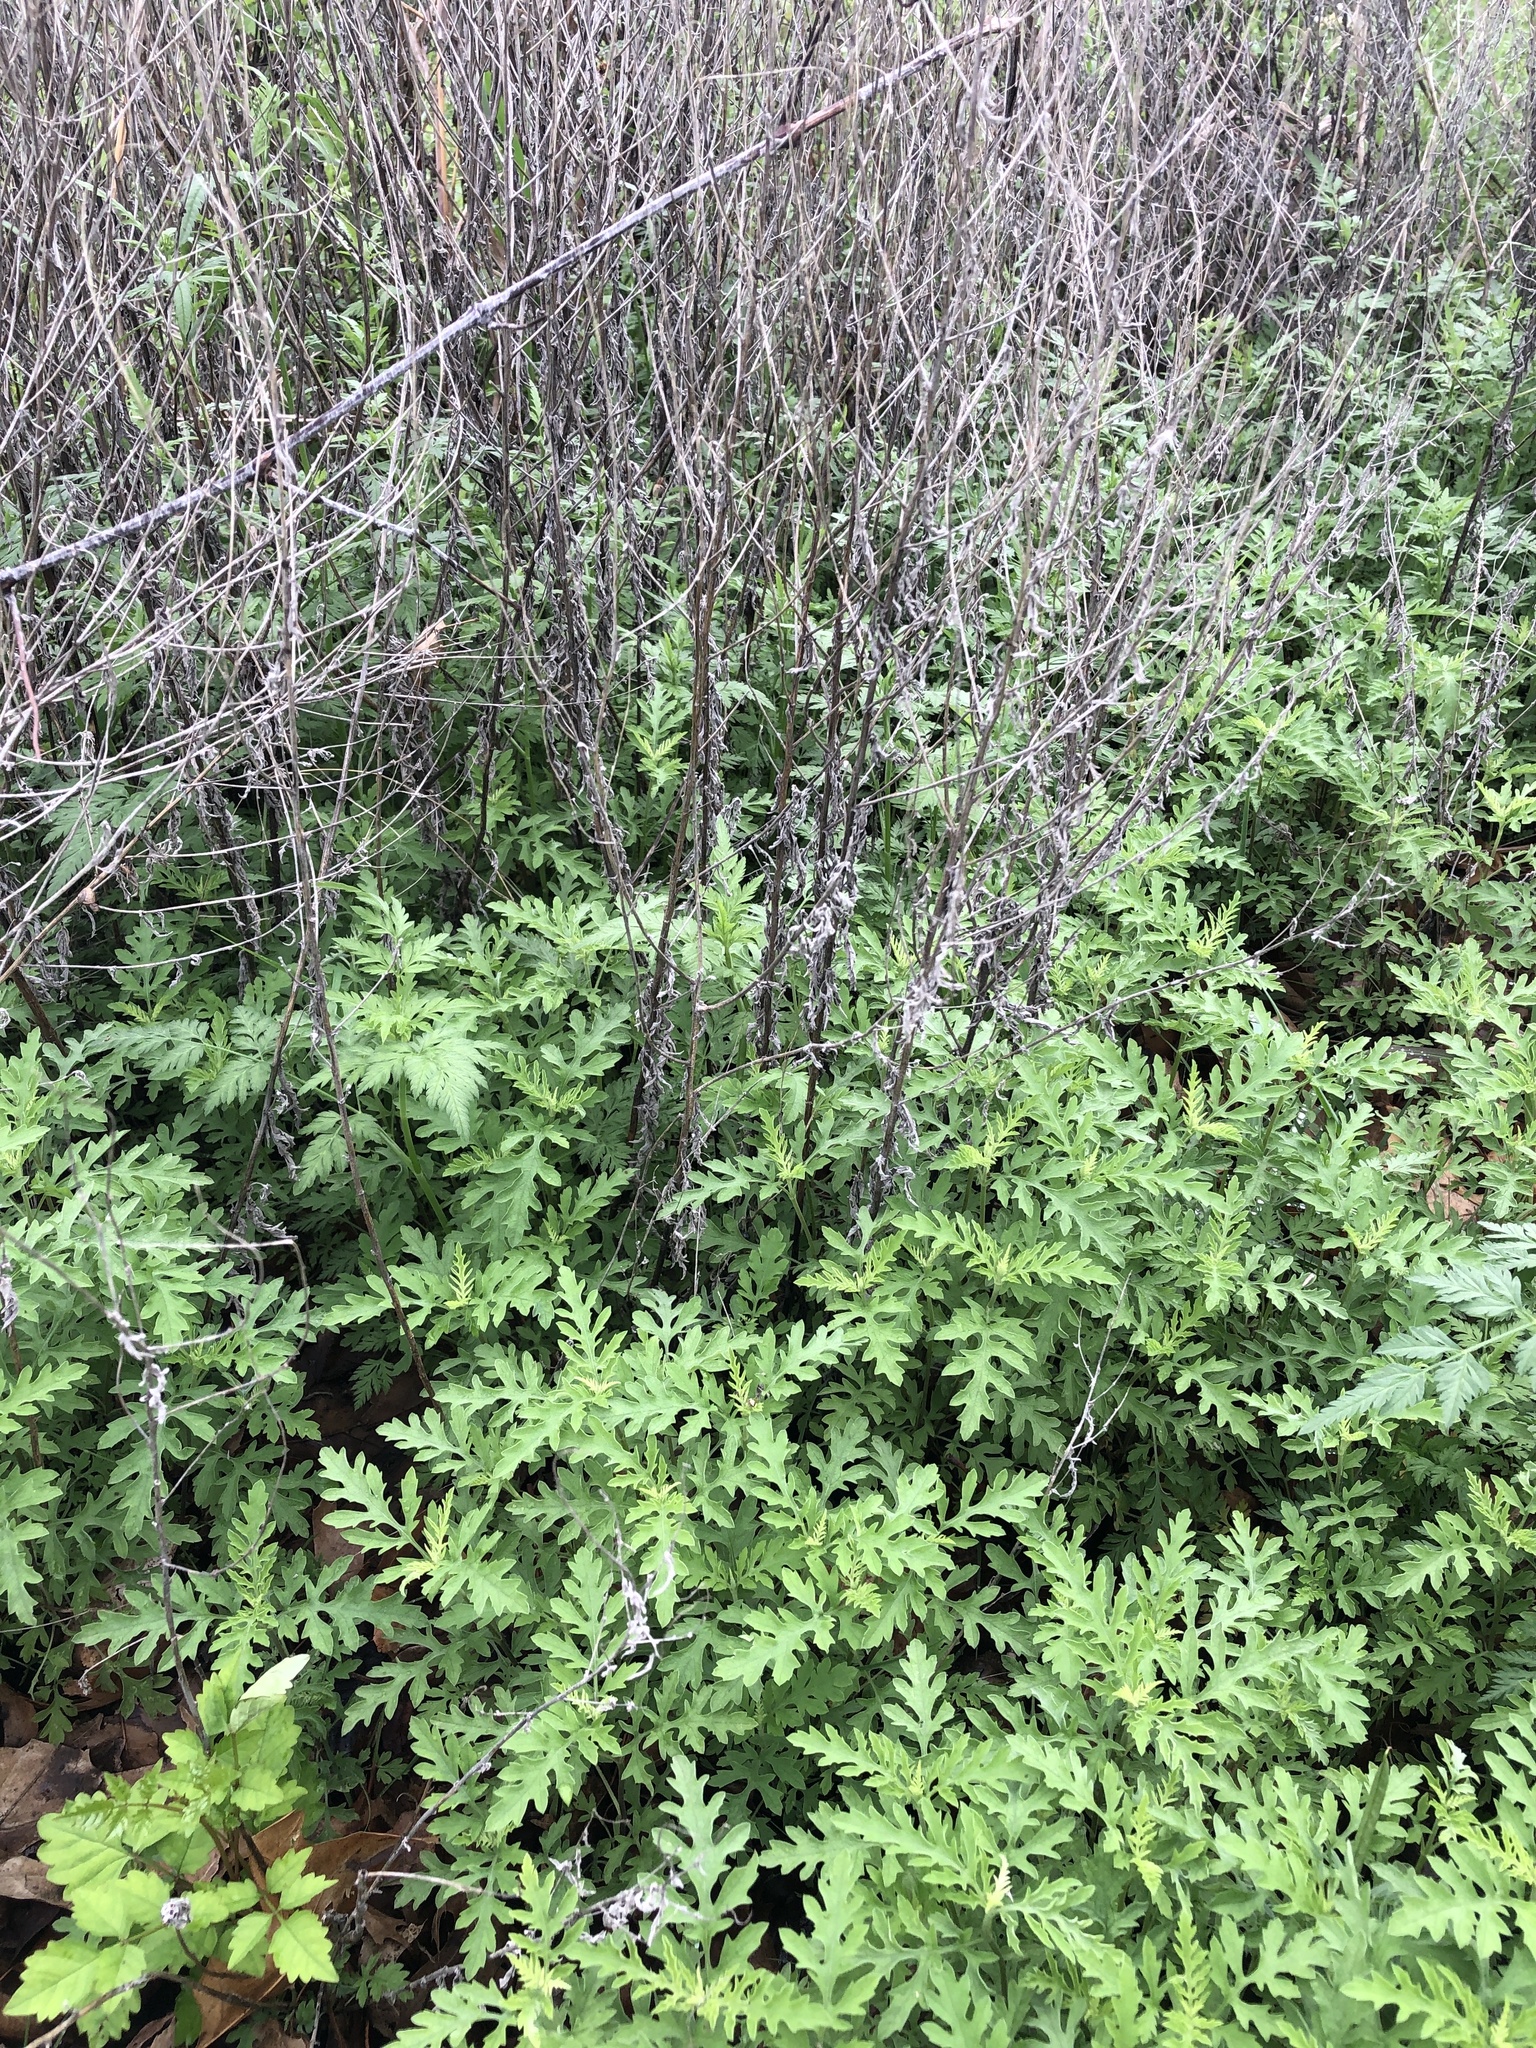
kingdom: Plantae
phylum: Tracheophyta
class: Magnoliopsida
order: Asterales
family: Asteraceae
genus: Ambrosia
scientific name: Ambrosia psilostachya
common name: Perennial ragweed
